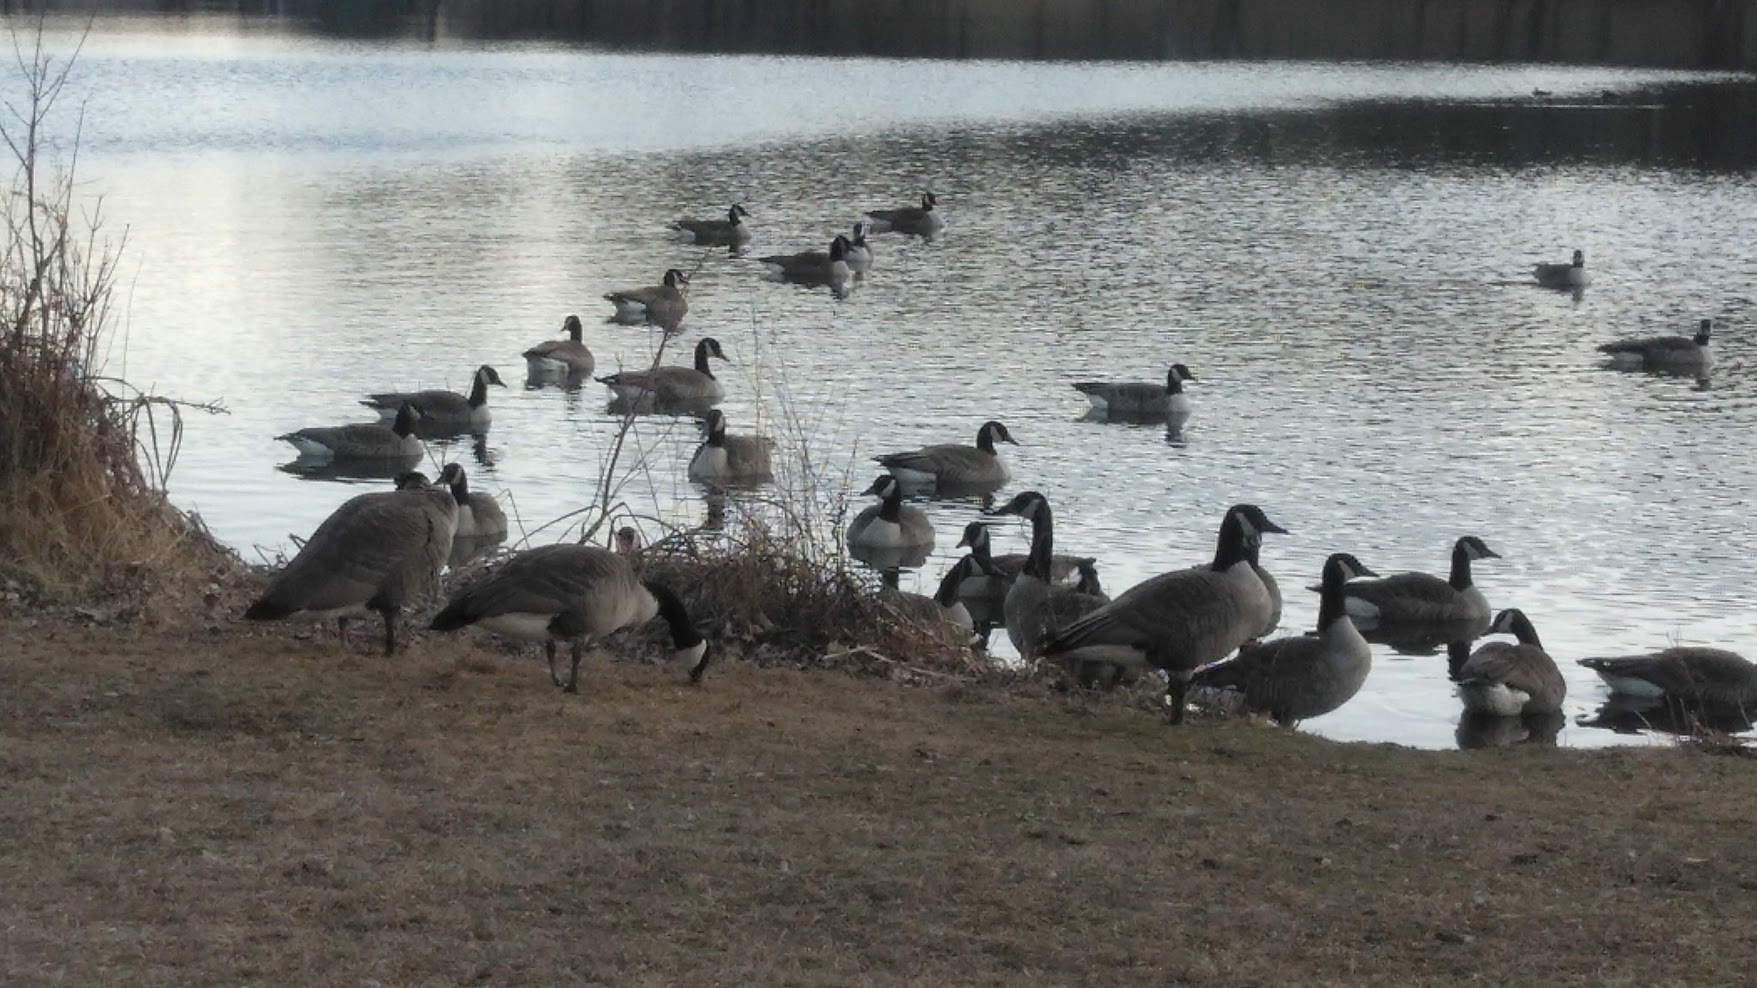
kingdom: Animalia
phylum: Chordata
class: Aves
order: Anseriformes
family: Anatidae
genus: Branta
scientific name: Branta canadensis
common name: Canada goose
